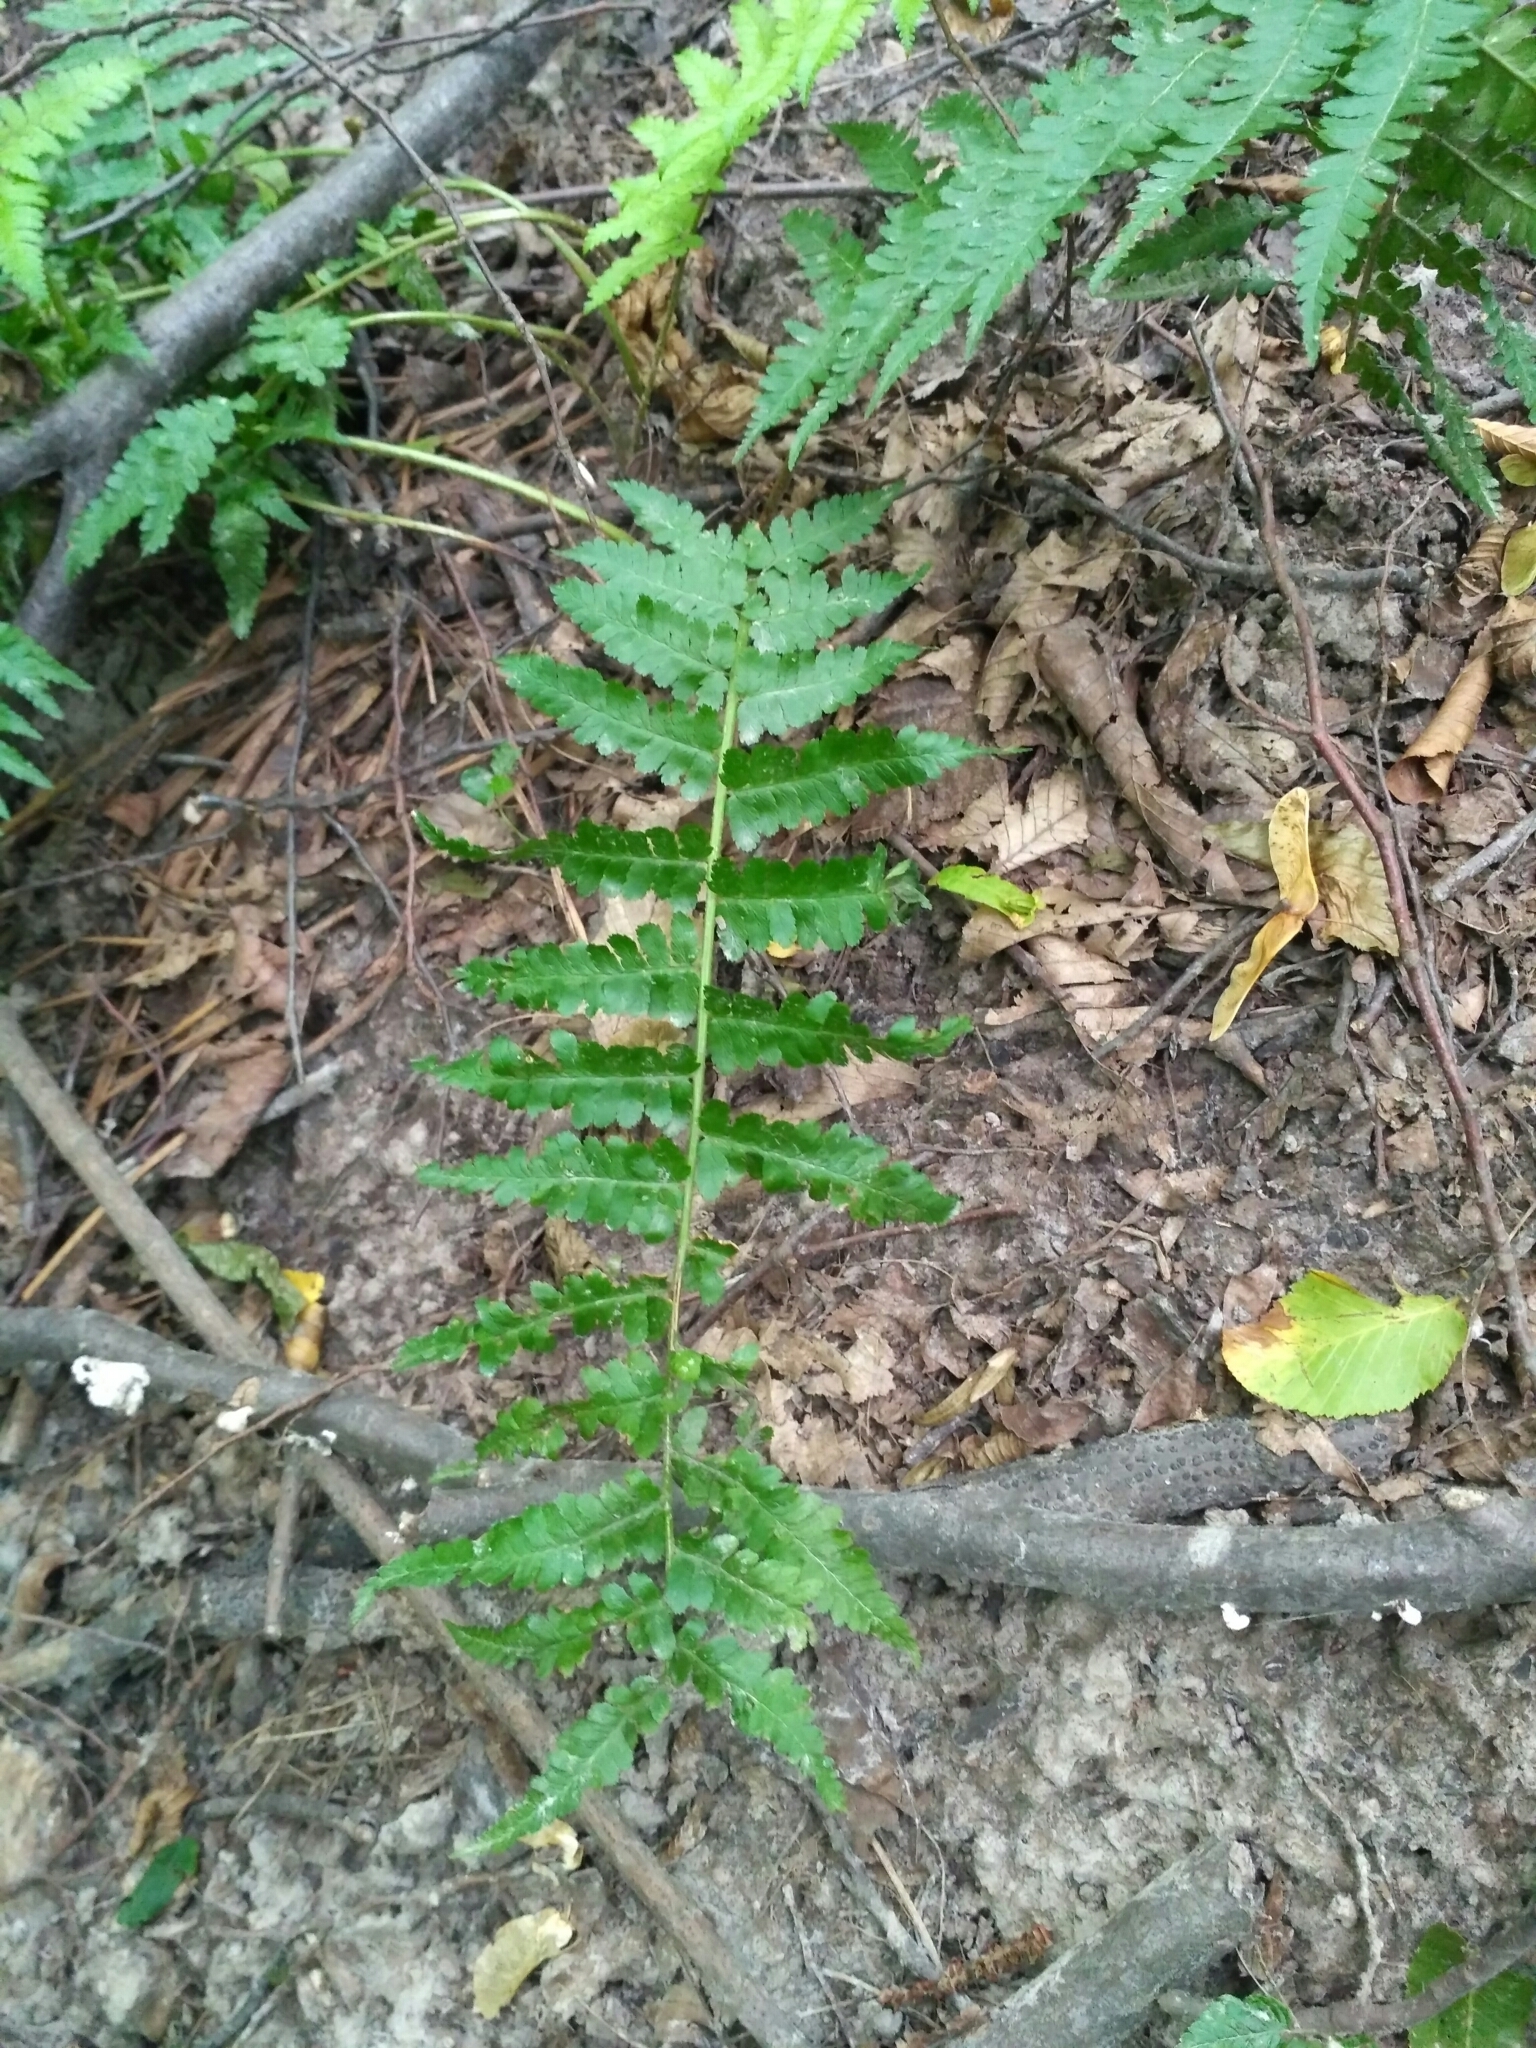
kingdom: Plantae
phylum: Tracheophyta
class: Polypodiopsida
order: Polypodiales
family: Dryopteridaceae
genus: Dryopteris
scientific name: Dryopteris filix-mas
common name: Male fern
